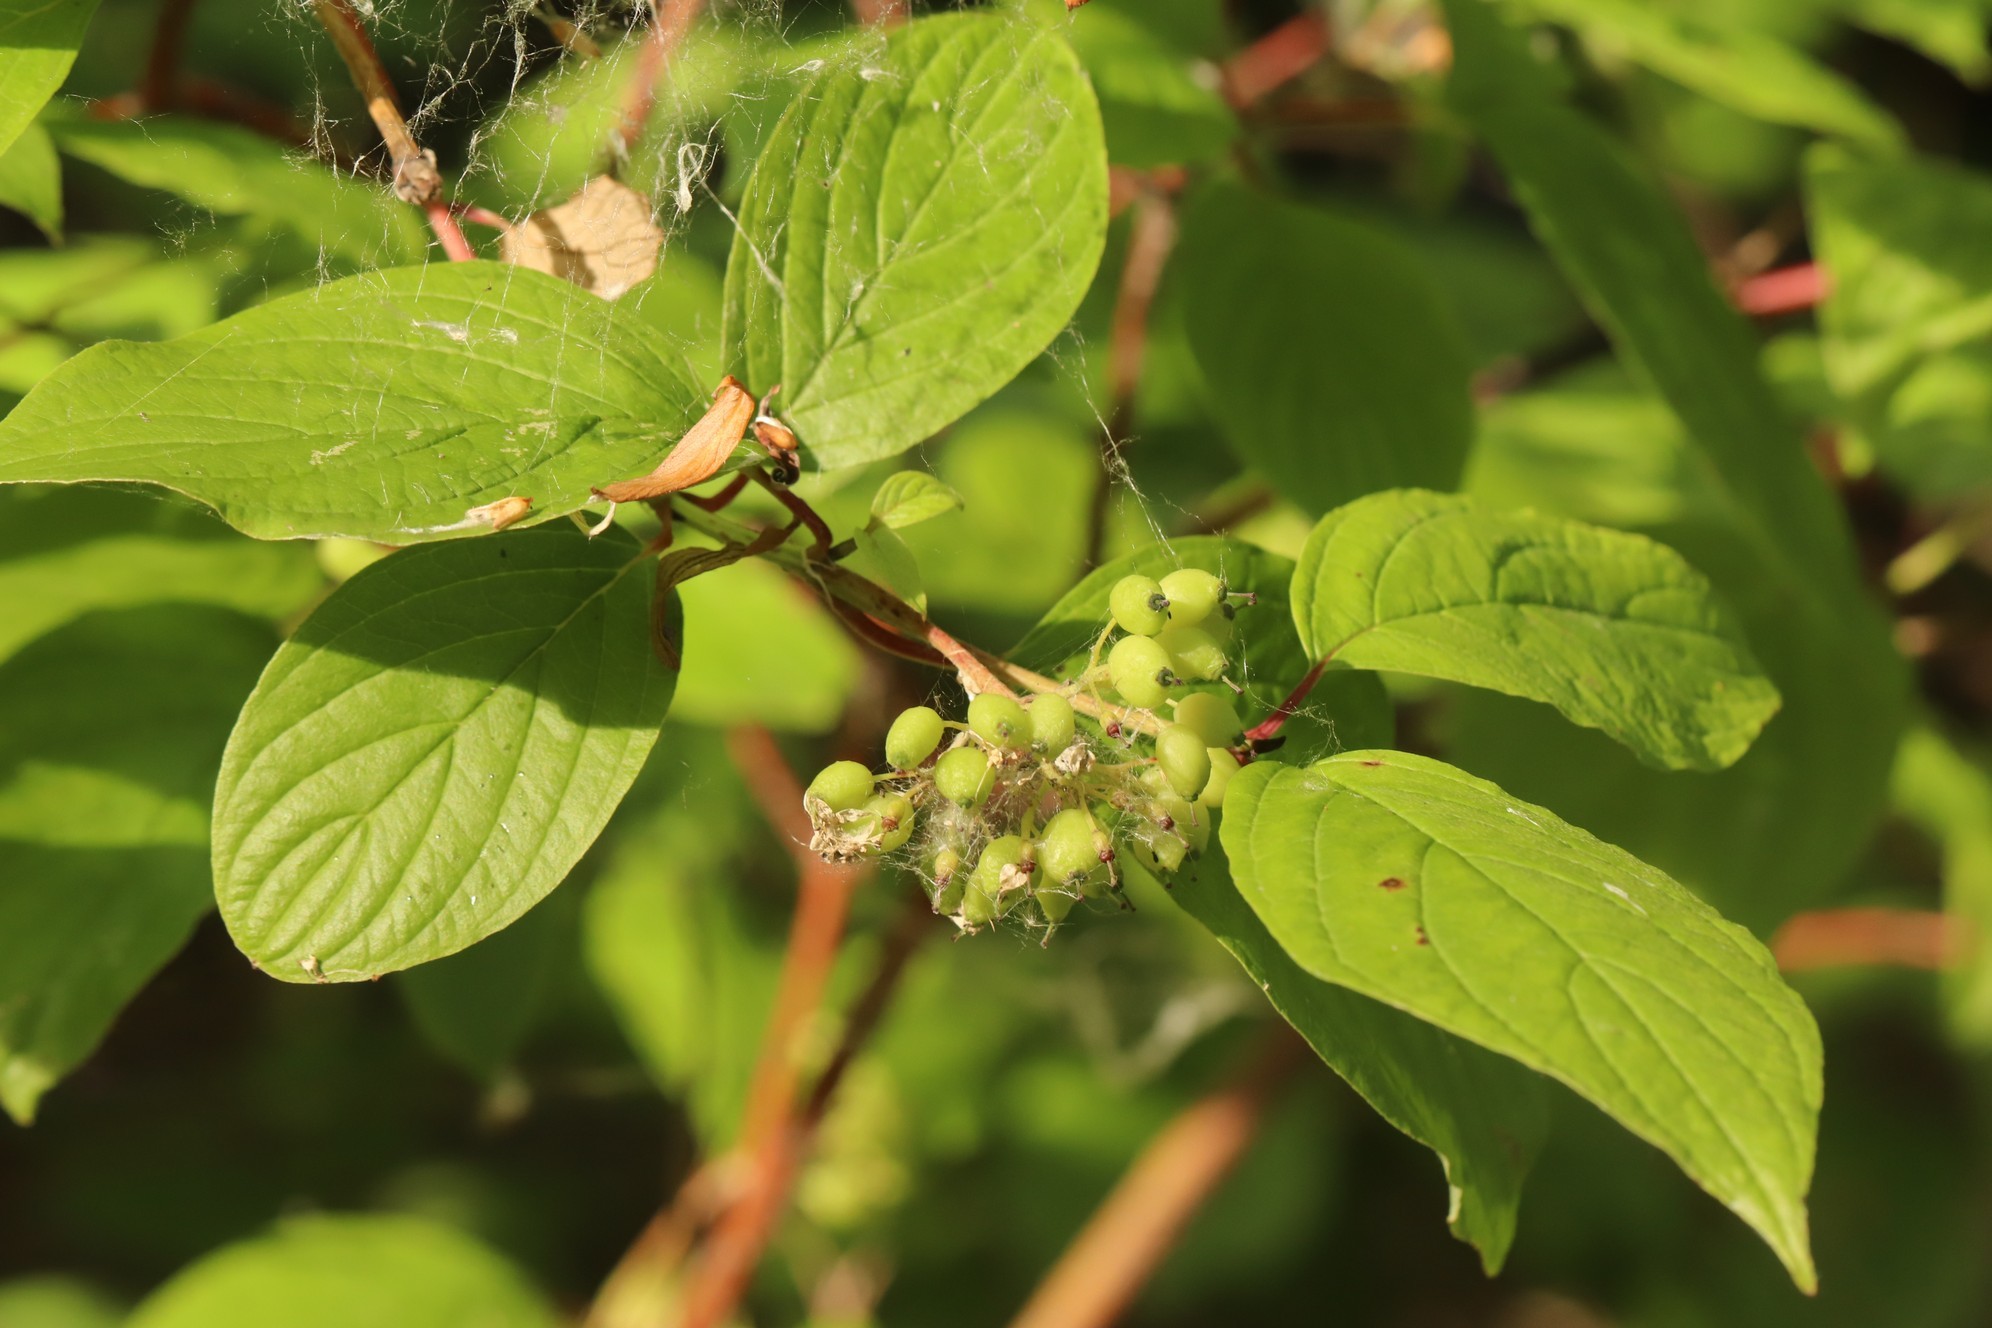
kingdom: Plantae
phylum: Tracheophyta
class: Magnoliopsida
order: Cornales
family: Cornaceae
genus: Cornus
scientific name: Cornus alba
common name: White dogwood
